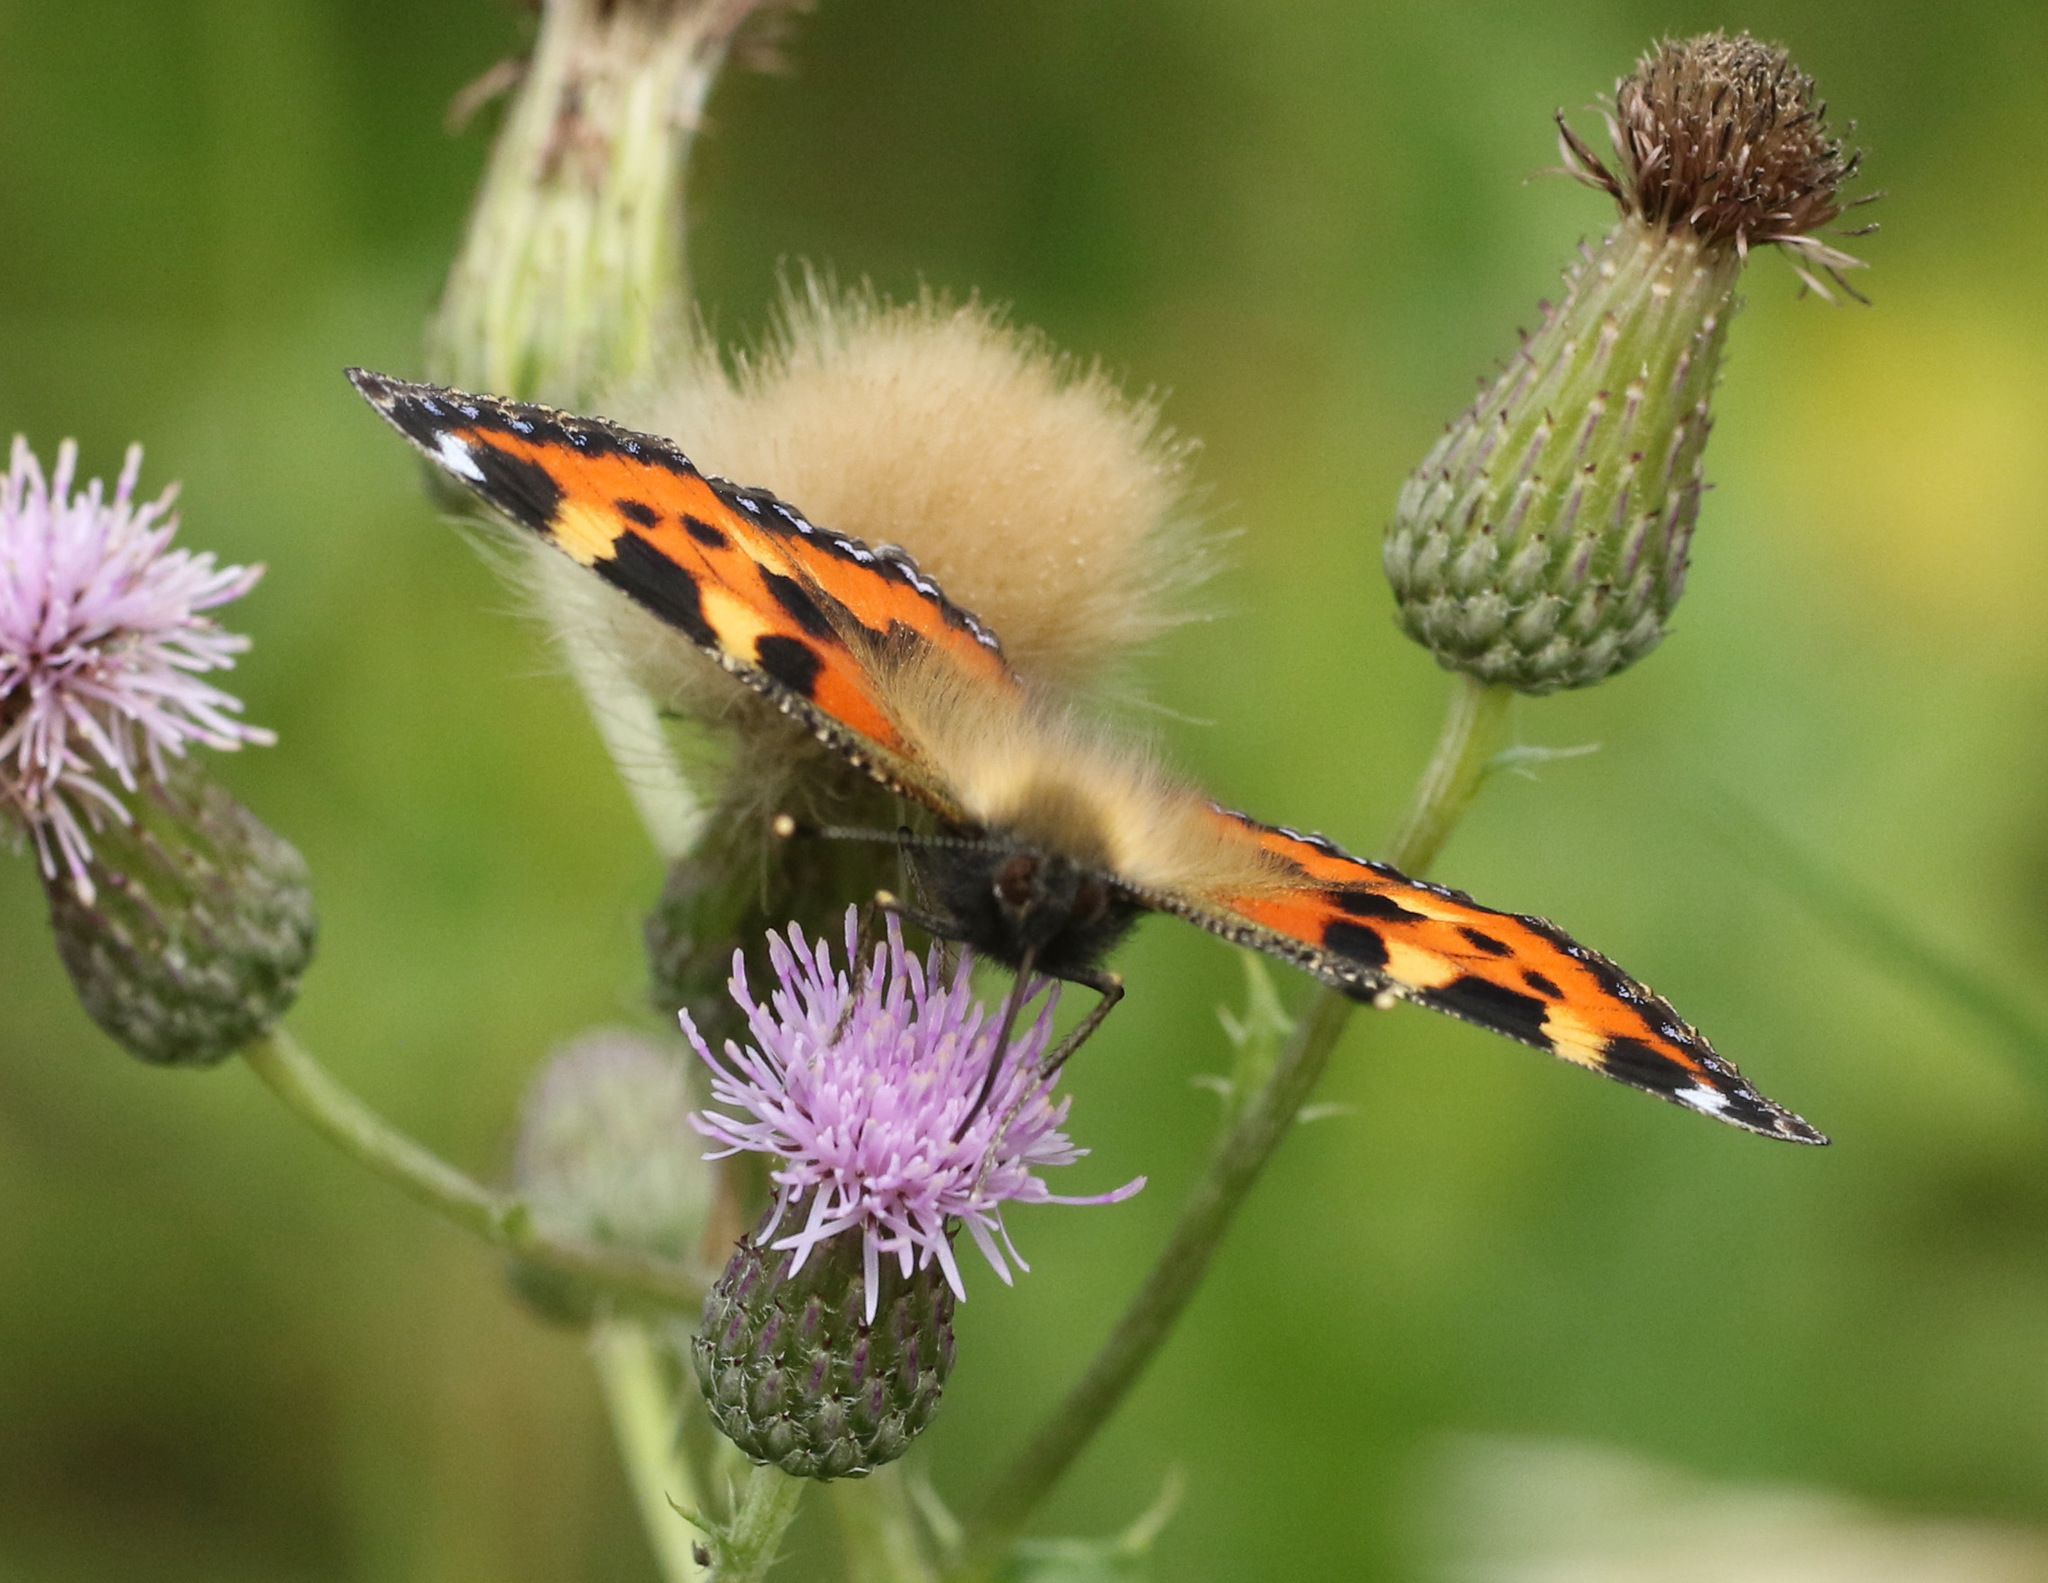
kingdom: Animalia
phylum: Arthropoda
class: Insecta
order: Lepidoptera
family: Nymphalidae
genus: Aglais
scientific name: Aglais urticae
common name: Small tortoiseshell
